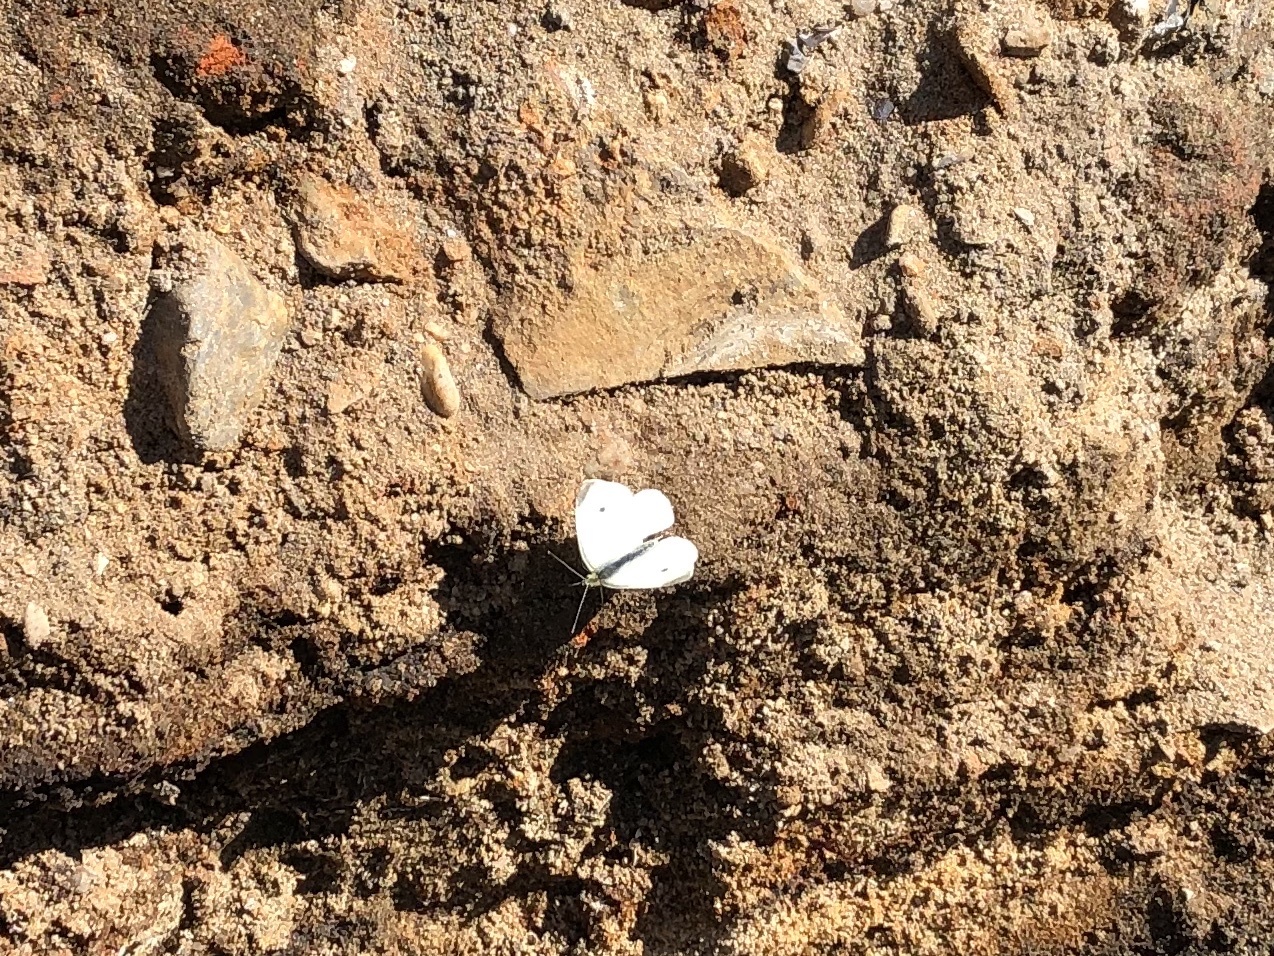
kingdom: Animalia
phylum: Arthropoda
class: Insecta
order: Lepidoptera
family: Pieridae
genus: Pieris
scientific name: Pieris rapae
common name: Small white
